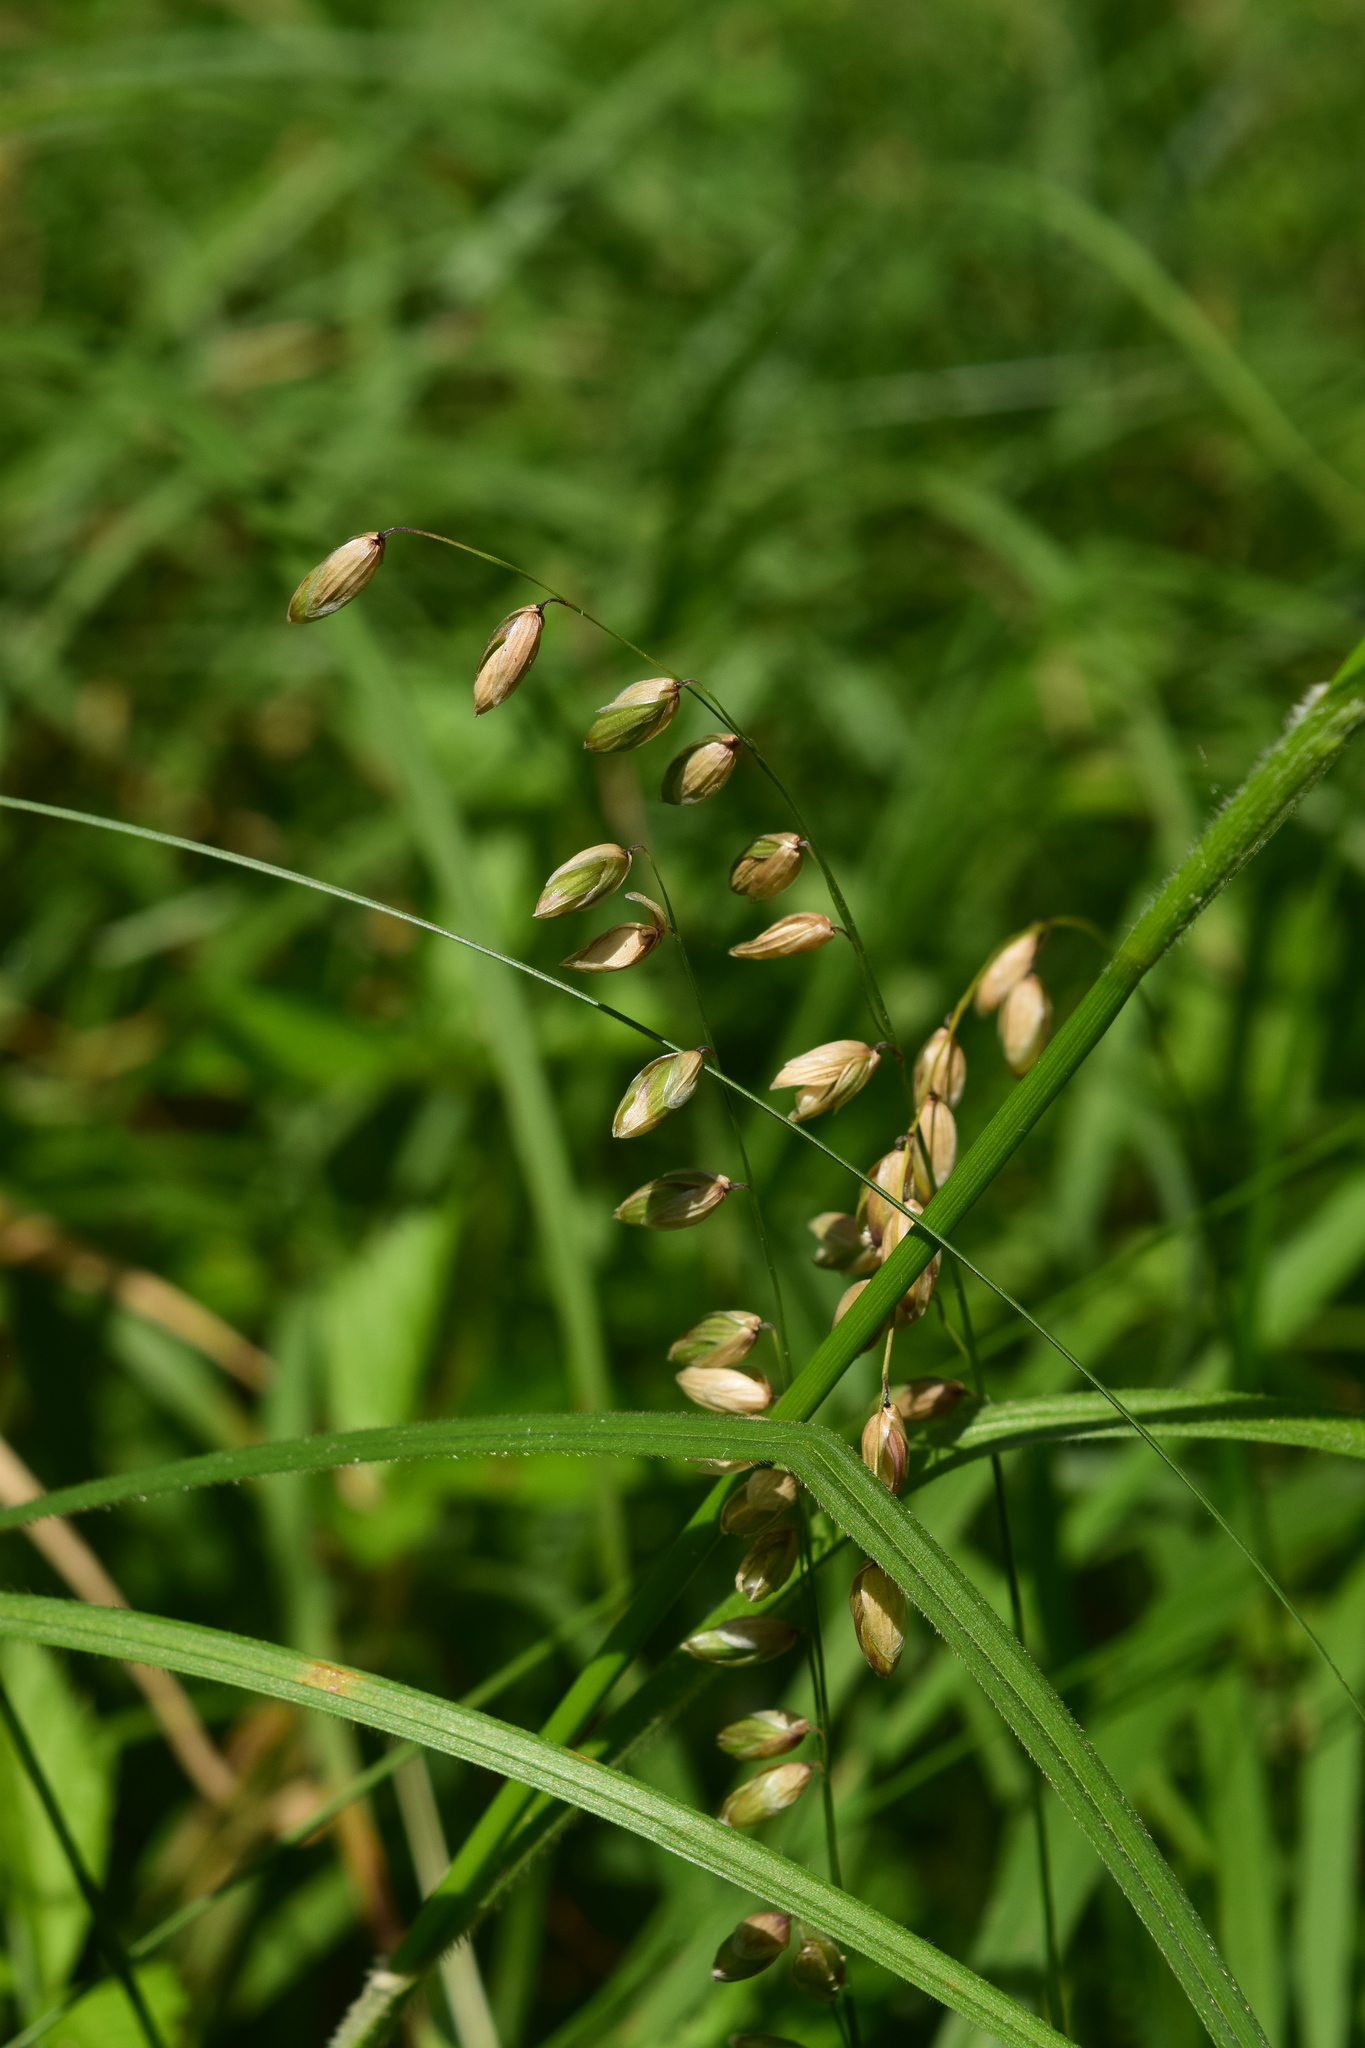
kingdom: Plantae
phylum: Tracheophyta
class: Liliopsida
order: Poales
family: Poaceae
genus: Melica
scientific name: Melica nutans
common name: Mountain melick
